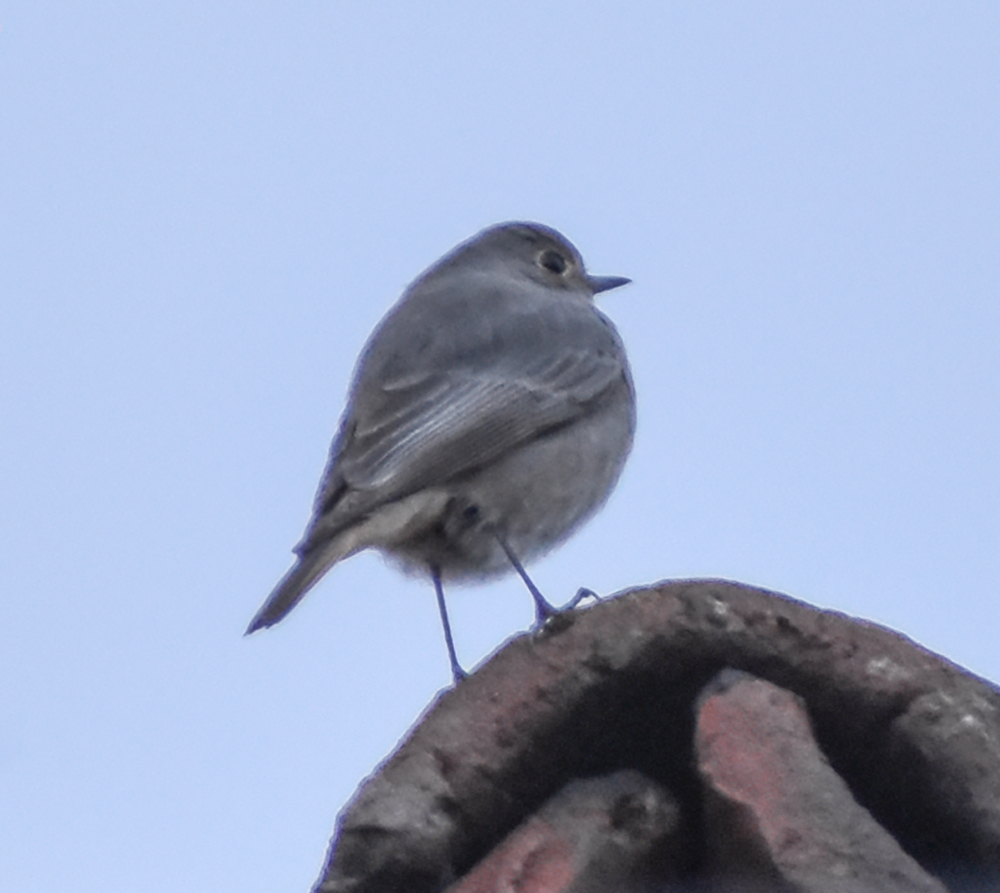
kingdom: Animalia
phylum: Chordata
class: Aves
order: Passeriformes
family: Muscicapidae
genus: Phoenicurus
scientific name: Phoenicurus ochruros
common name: Black redstart
